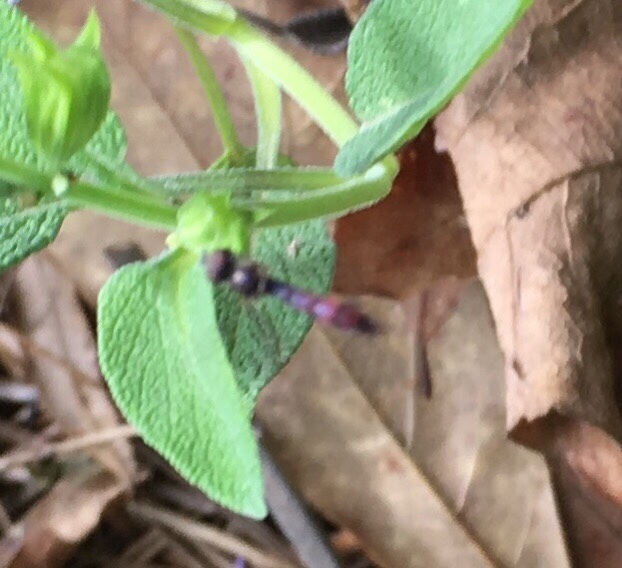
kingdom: Animalia
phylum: Arthropoda
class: Insecta
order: Diptera
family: Syrphidae
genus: Ocyptamus
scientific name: Ocyptamus fuscipennis
